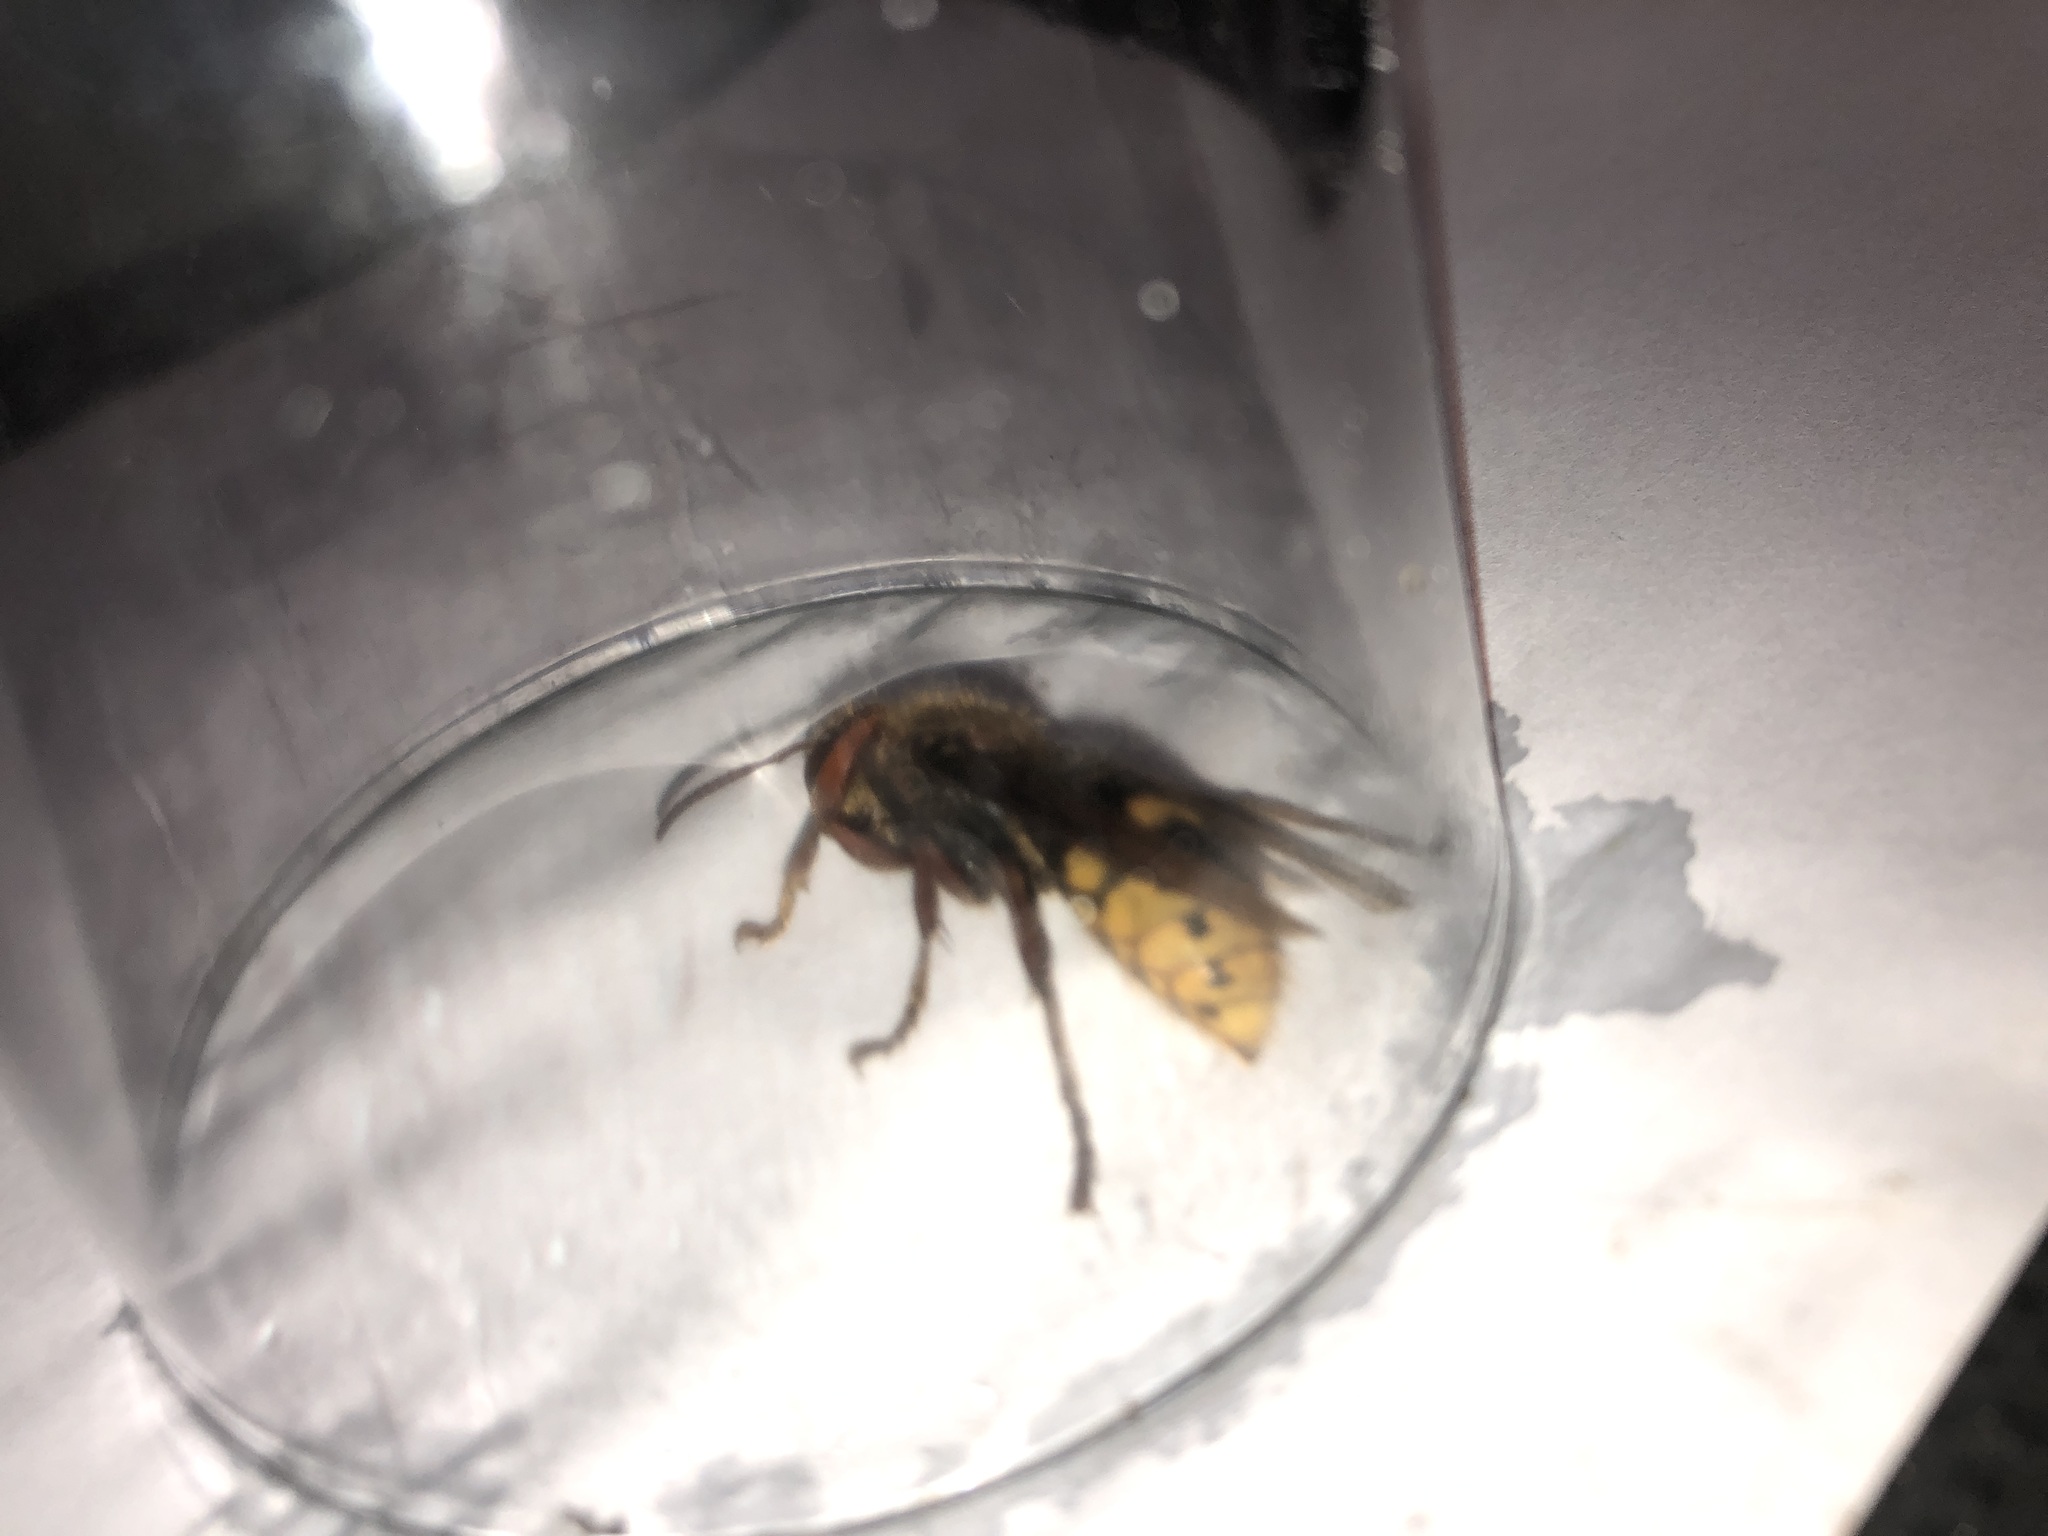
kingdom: Animalia
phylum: Arthropoda
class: Insecta
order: Hymenoptera
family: Vespidae
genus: Vespa
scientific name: Vespa crabro
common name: Hornet
